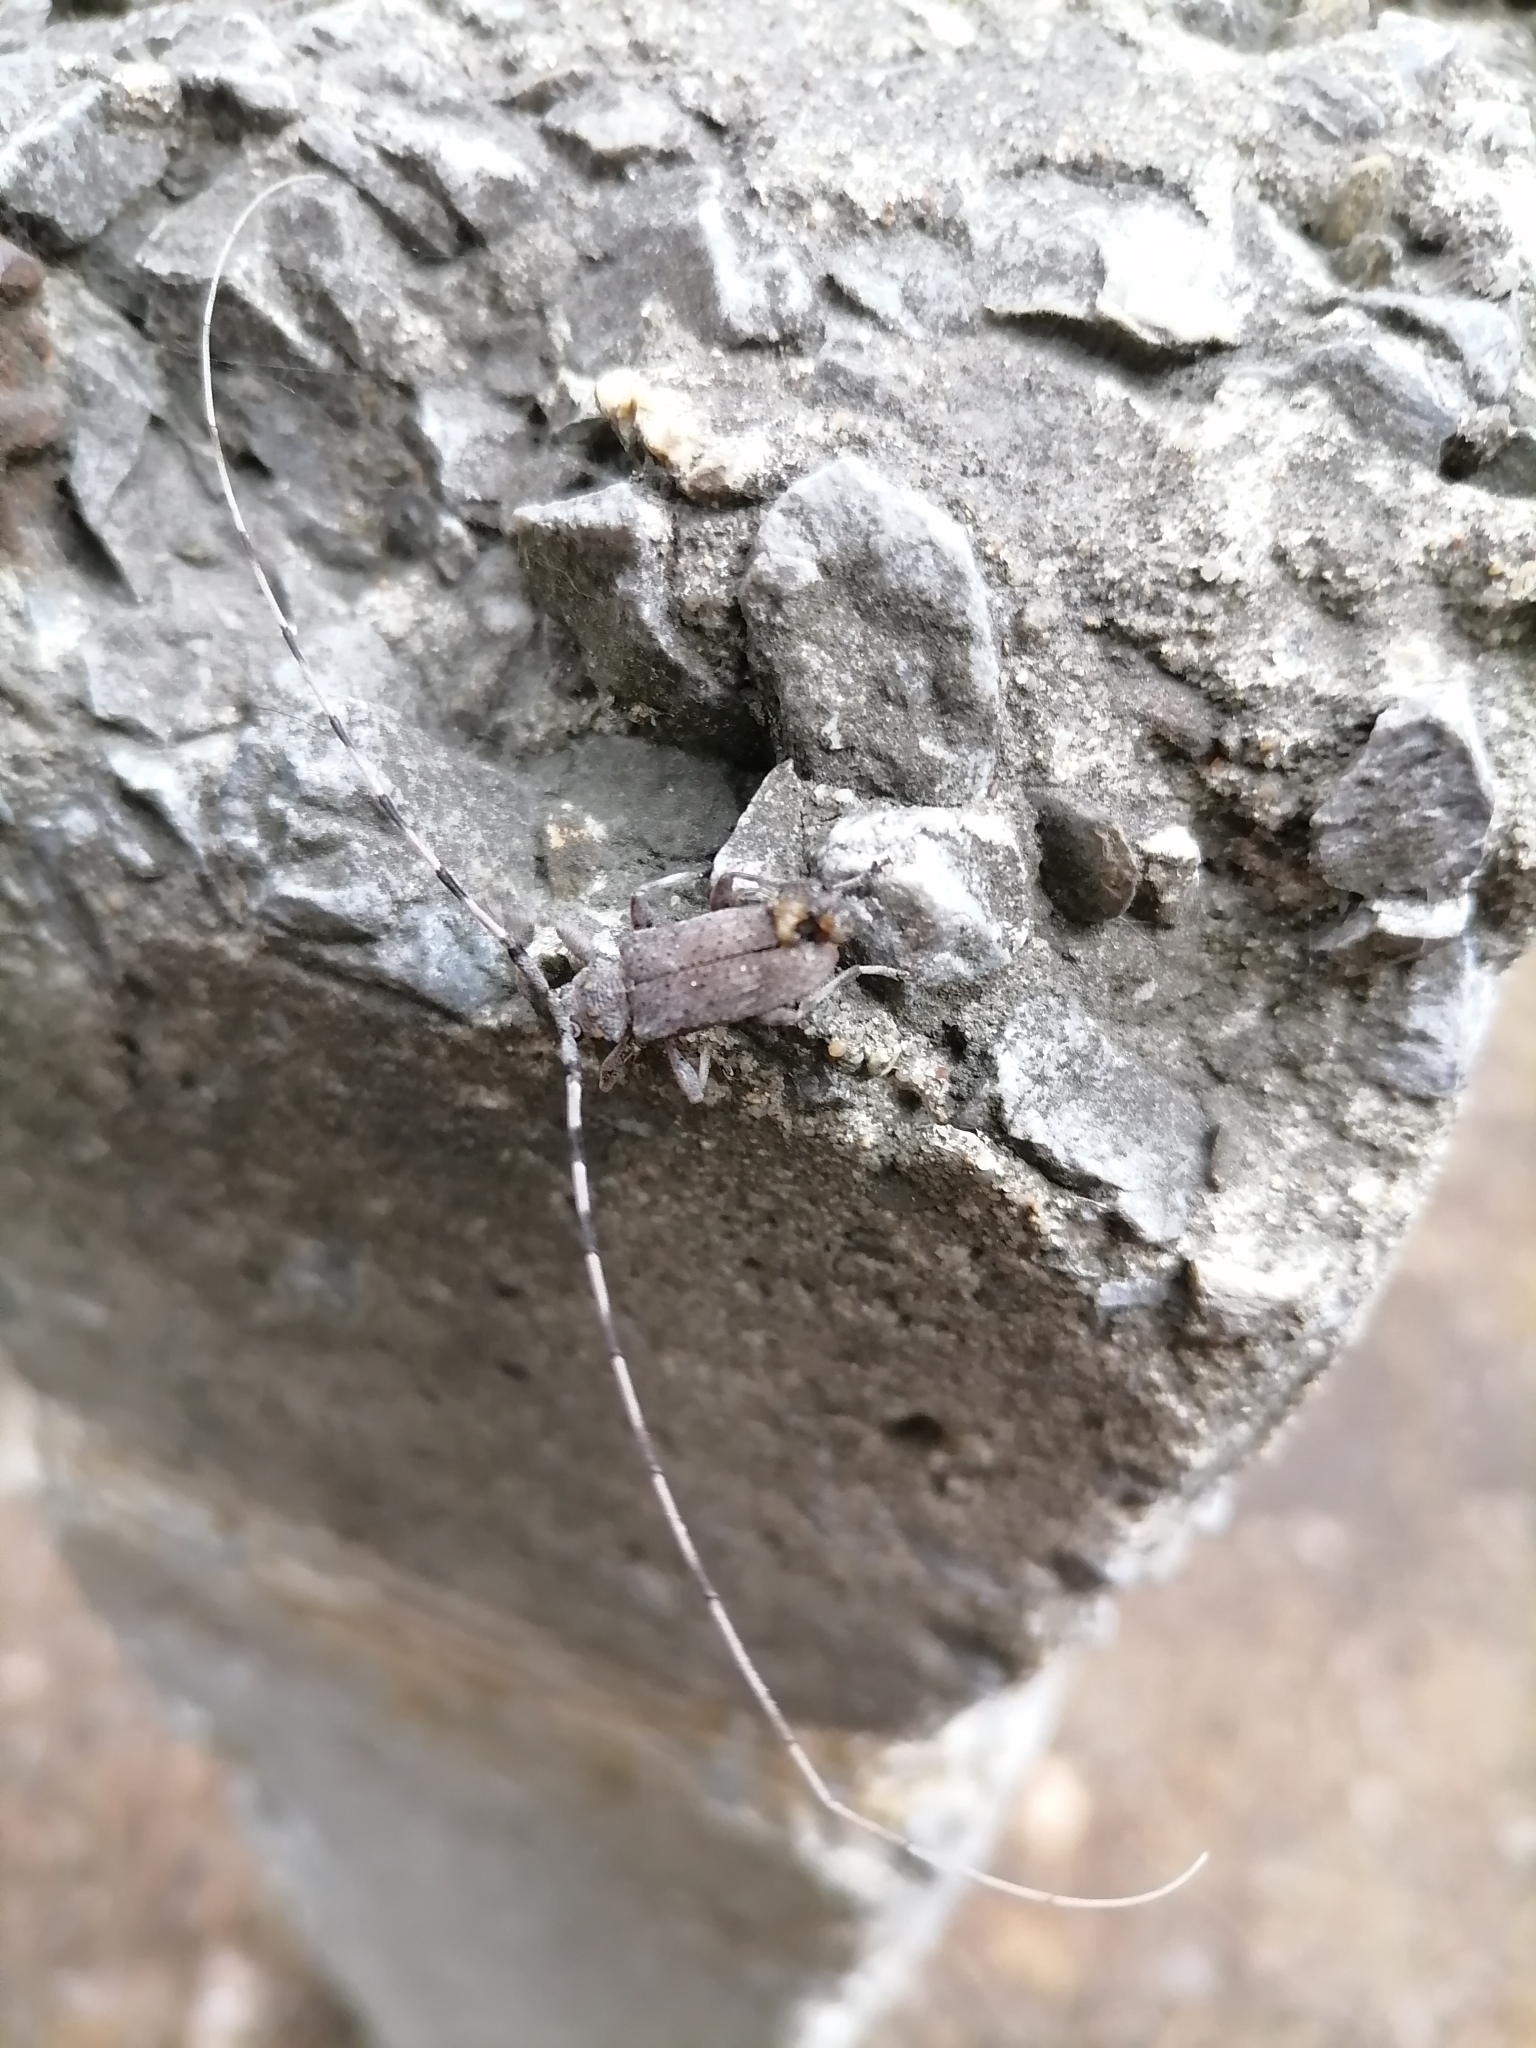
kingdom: Animalia
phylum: Arthropoda
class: Insecta
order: Coleoptera
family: Cerambycidae
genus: Acanthocinus
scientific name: Acanthocinus aedilis
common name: Timberman beetle
